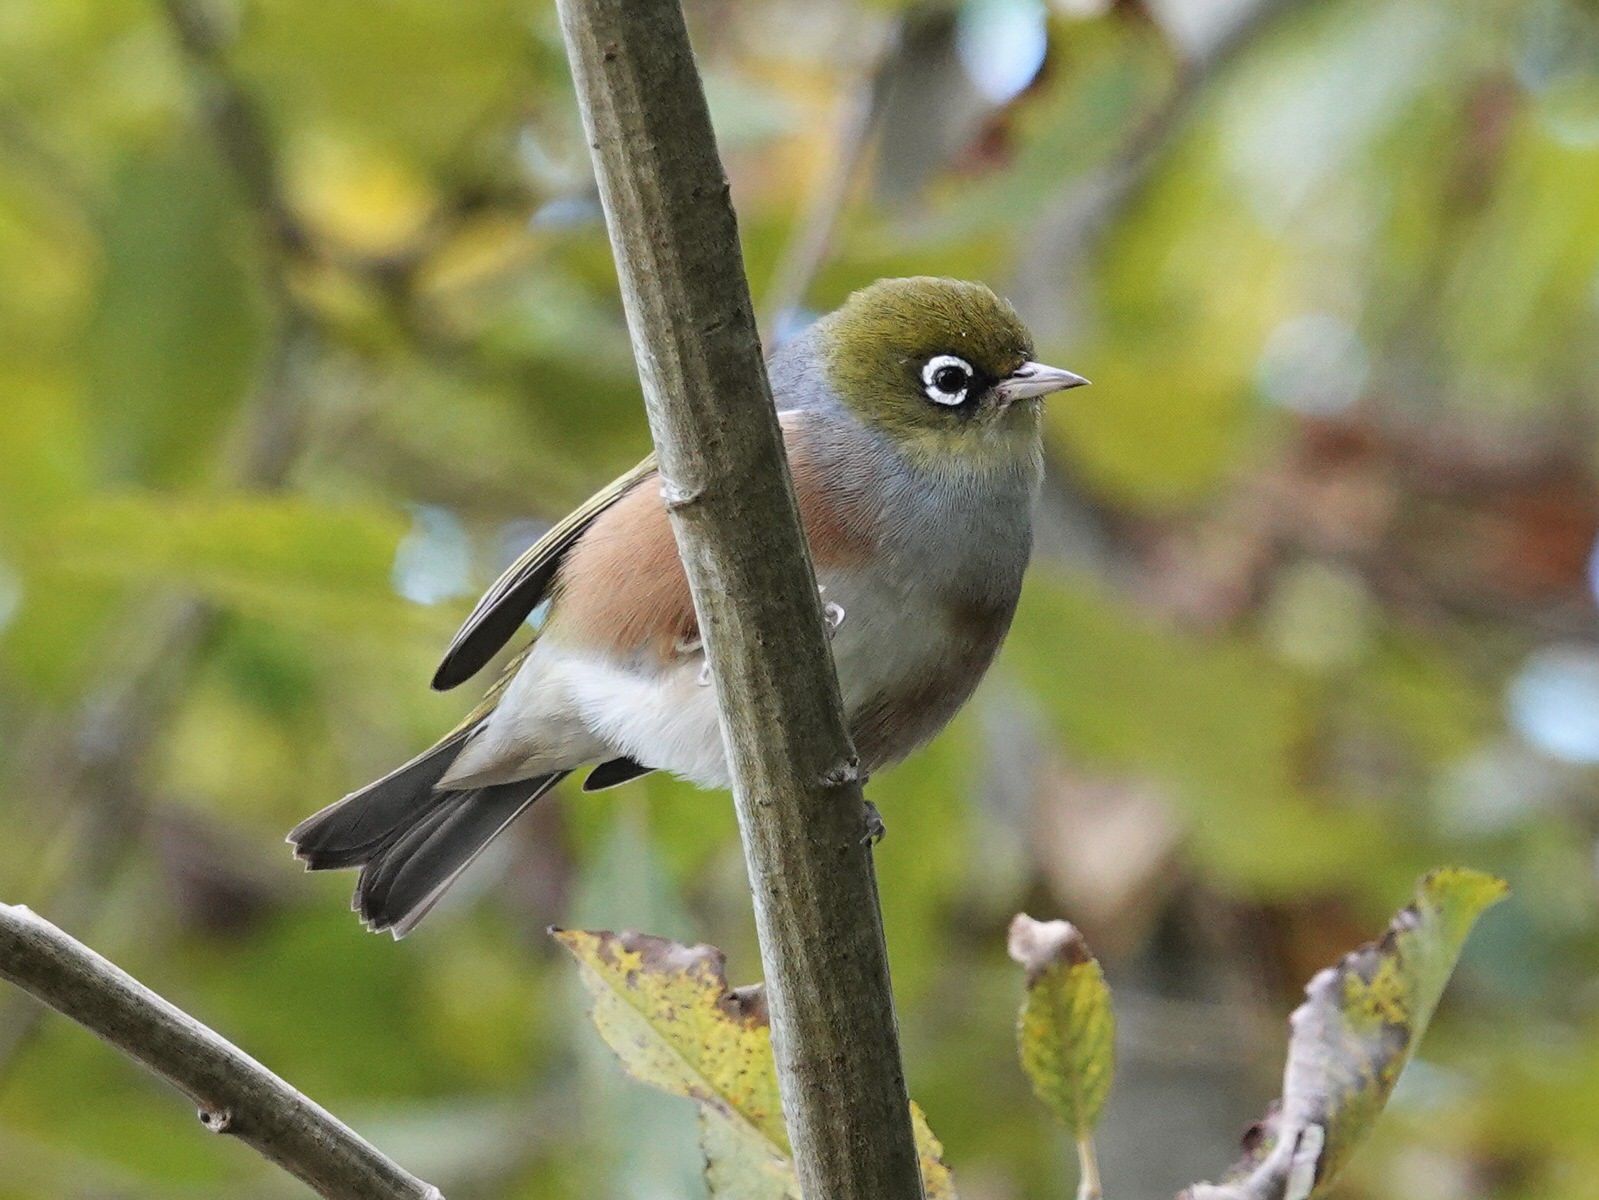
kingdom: Animalia
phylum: Chordata
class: Aves
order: Passeriformes
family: Zosteropidae
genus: Zosterops
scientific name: Zosterops lateralis
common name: Silvereye
